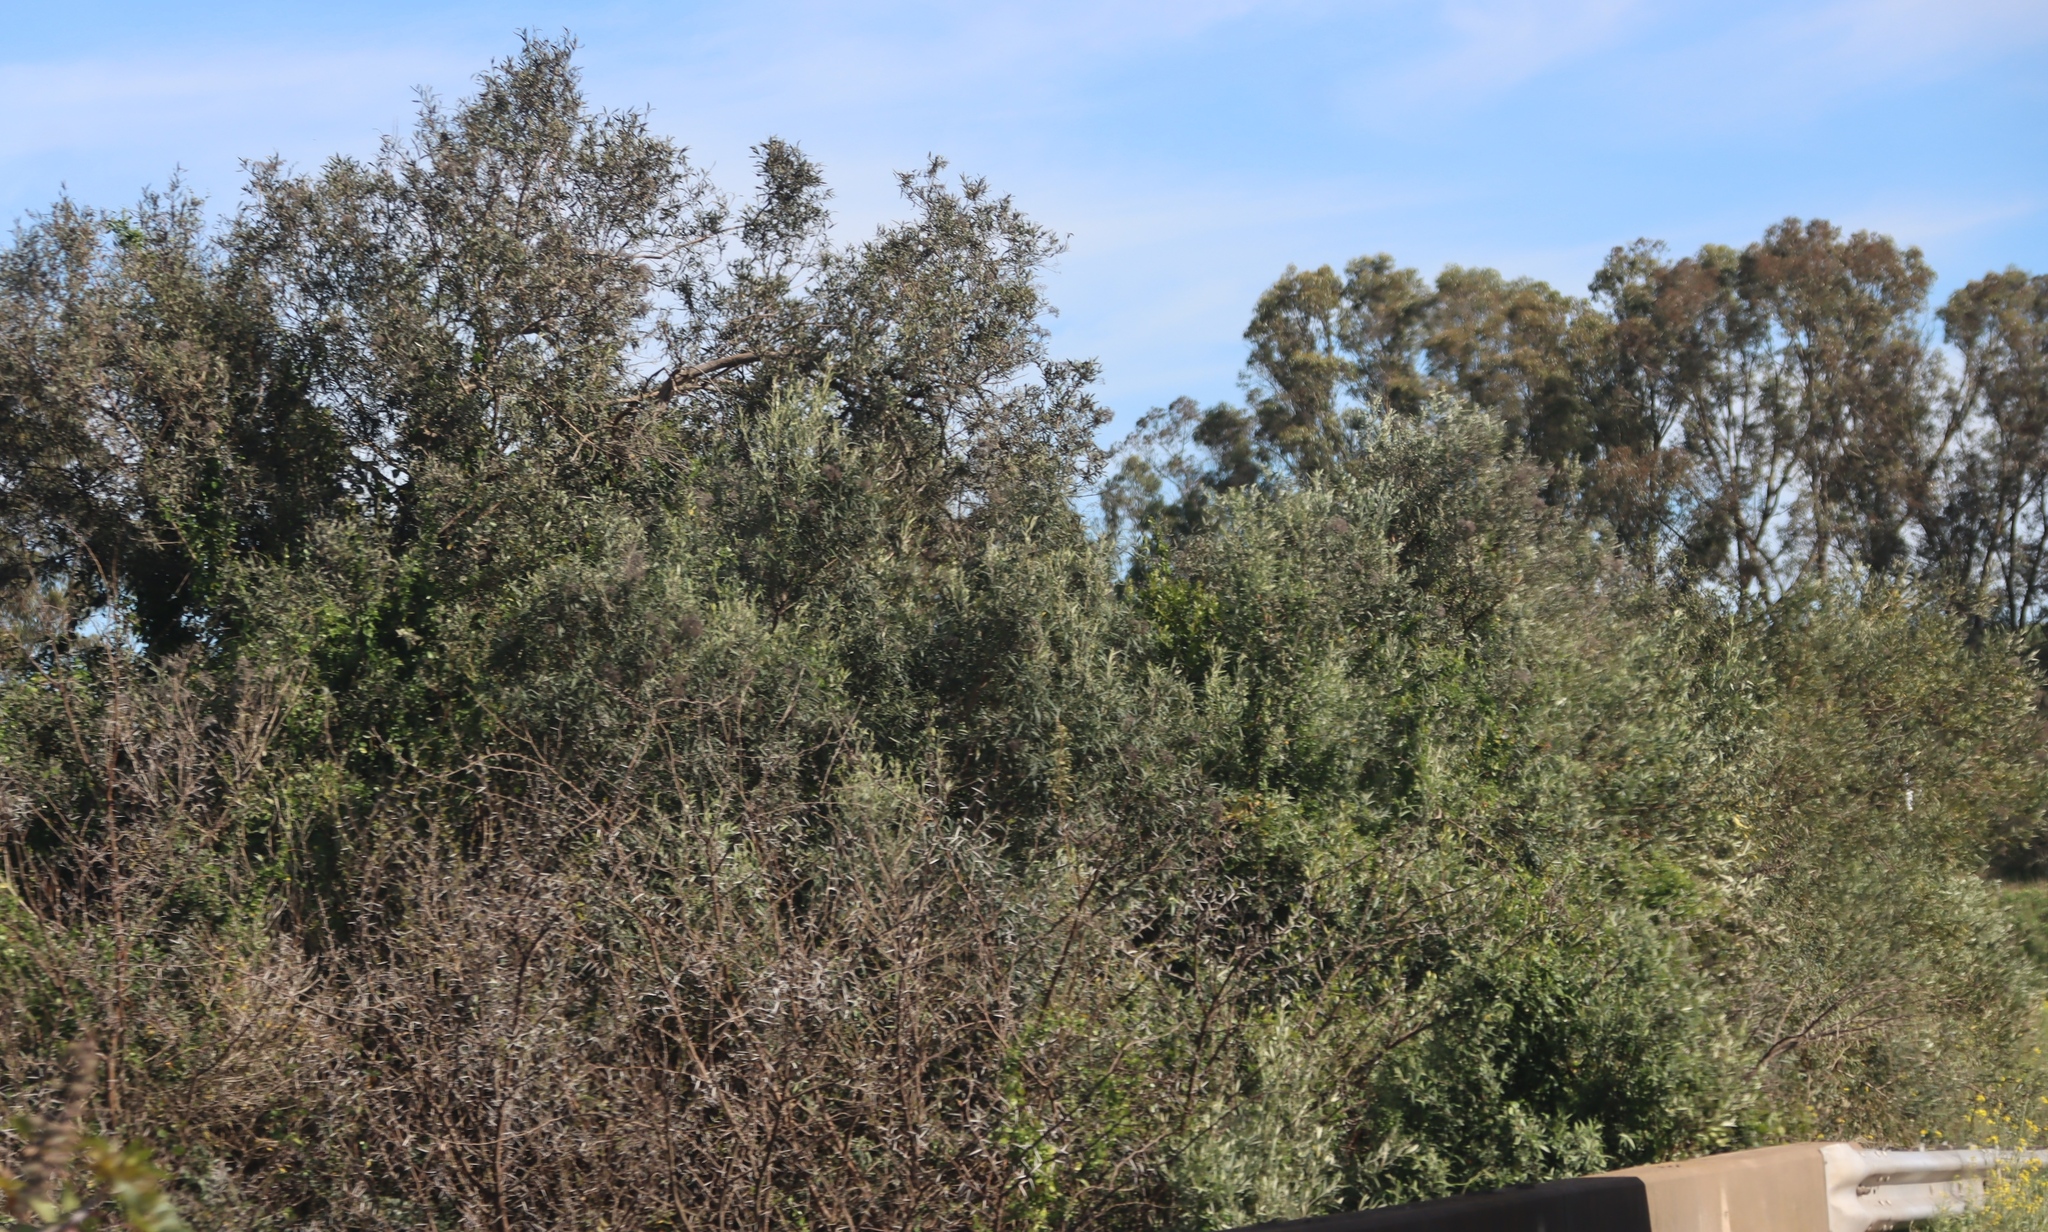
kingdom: Plantae
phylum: Tracheophyta
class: Magnoliopsida
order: Fabales
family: Fabaceae
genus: Vachellia
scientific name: Vachellia karroo
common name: Sweet thorn
